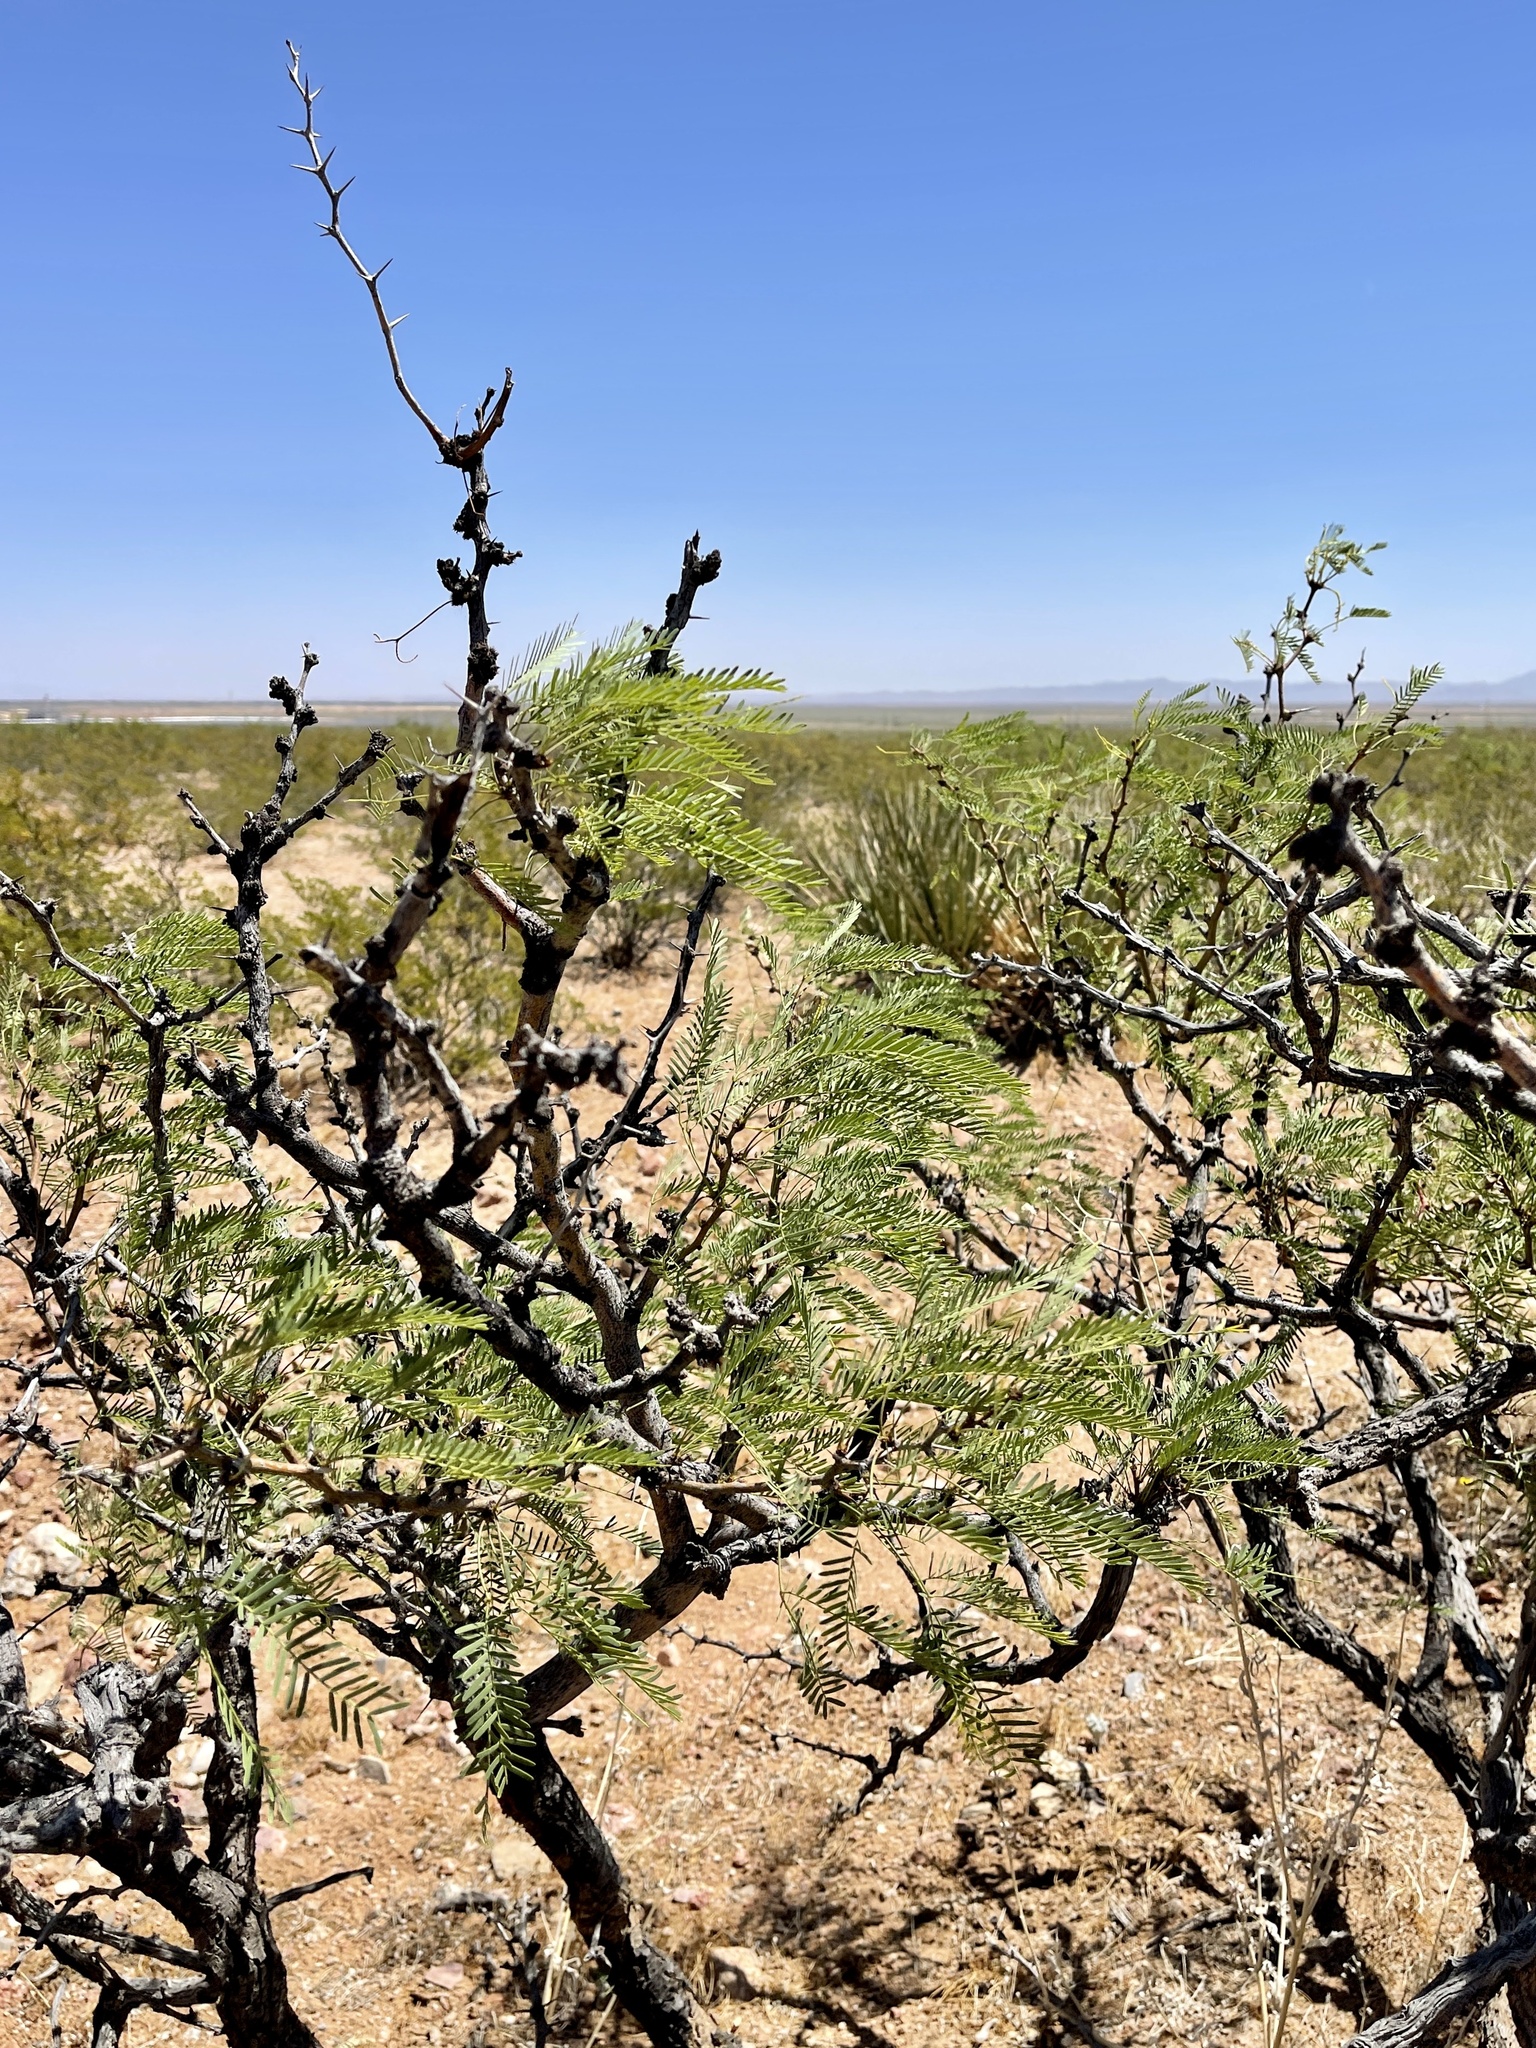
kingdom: Plantae
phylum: Tracheophyta
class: Magnoliopsida
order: Fabales
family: Fabaceae
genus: Prosopis
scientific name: Prosopis pubescens
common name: Screw-bean
